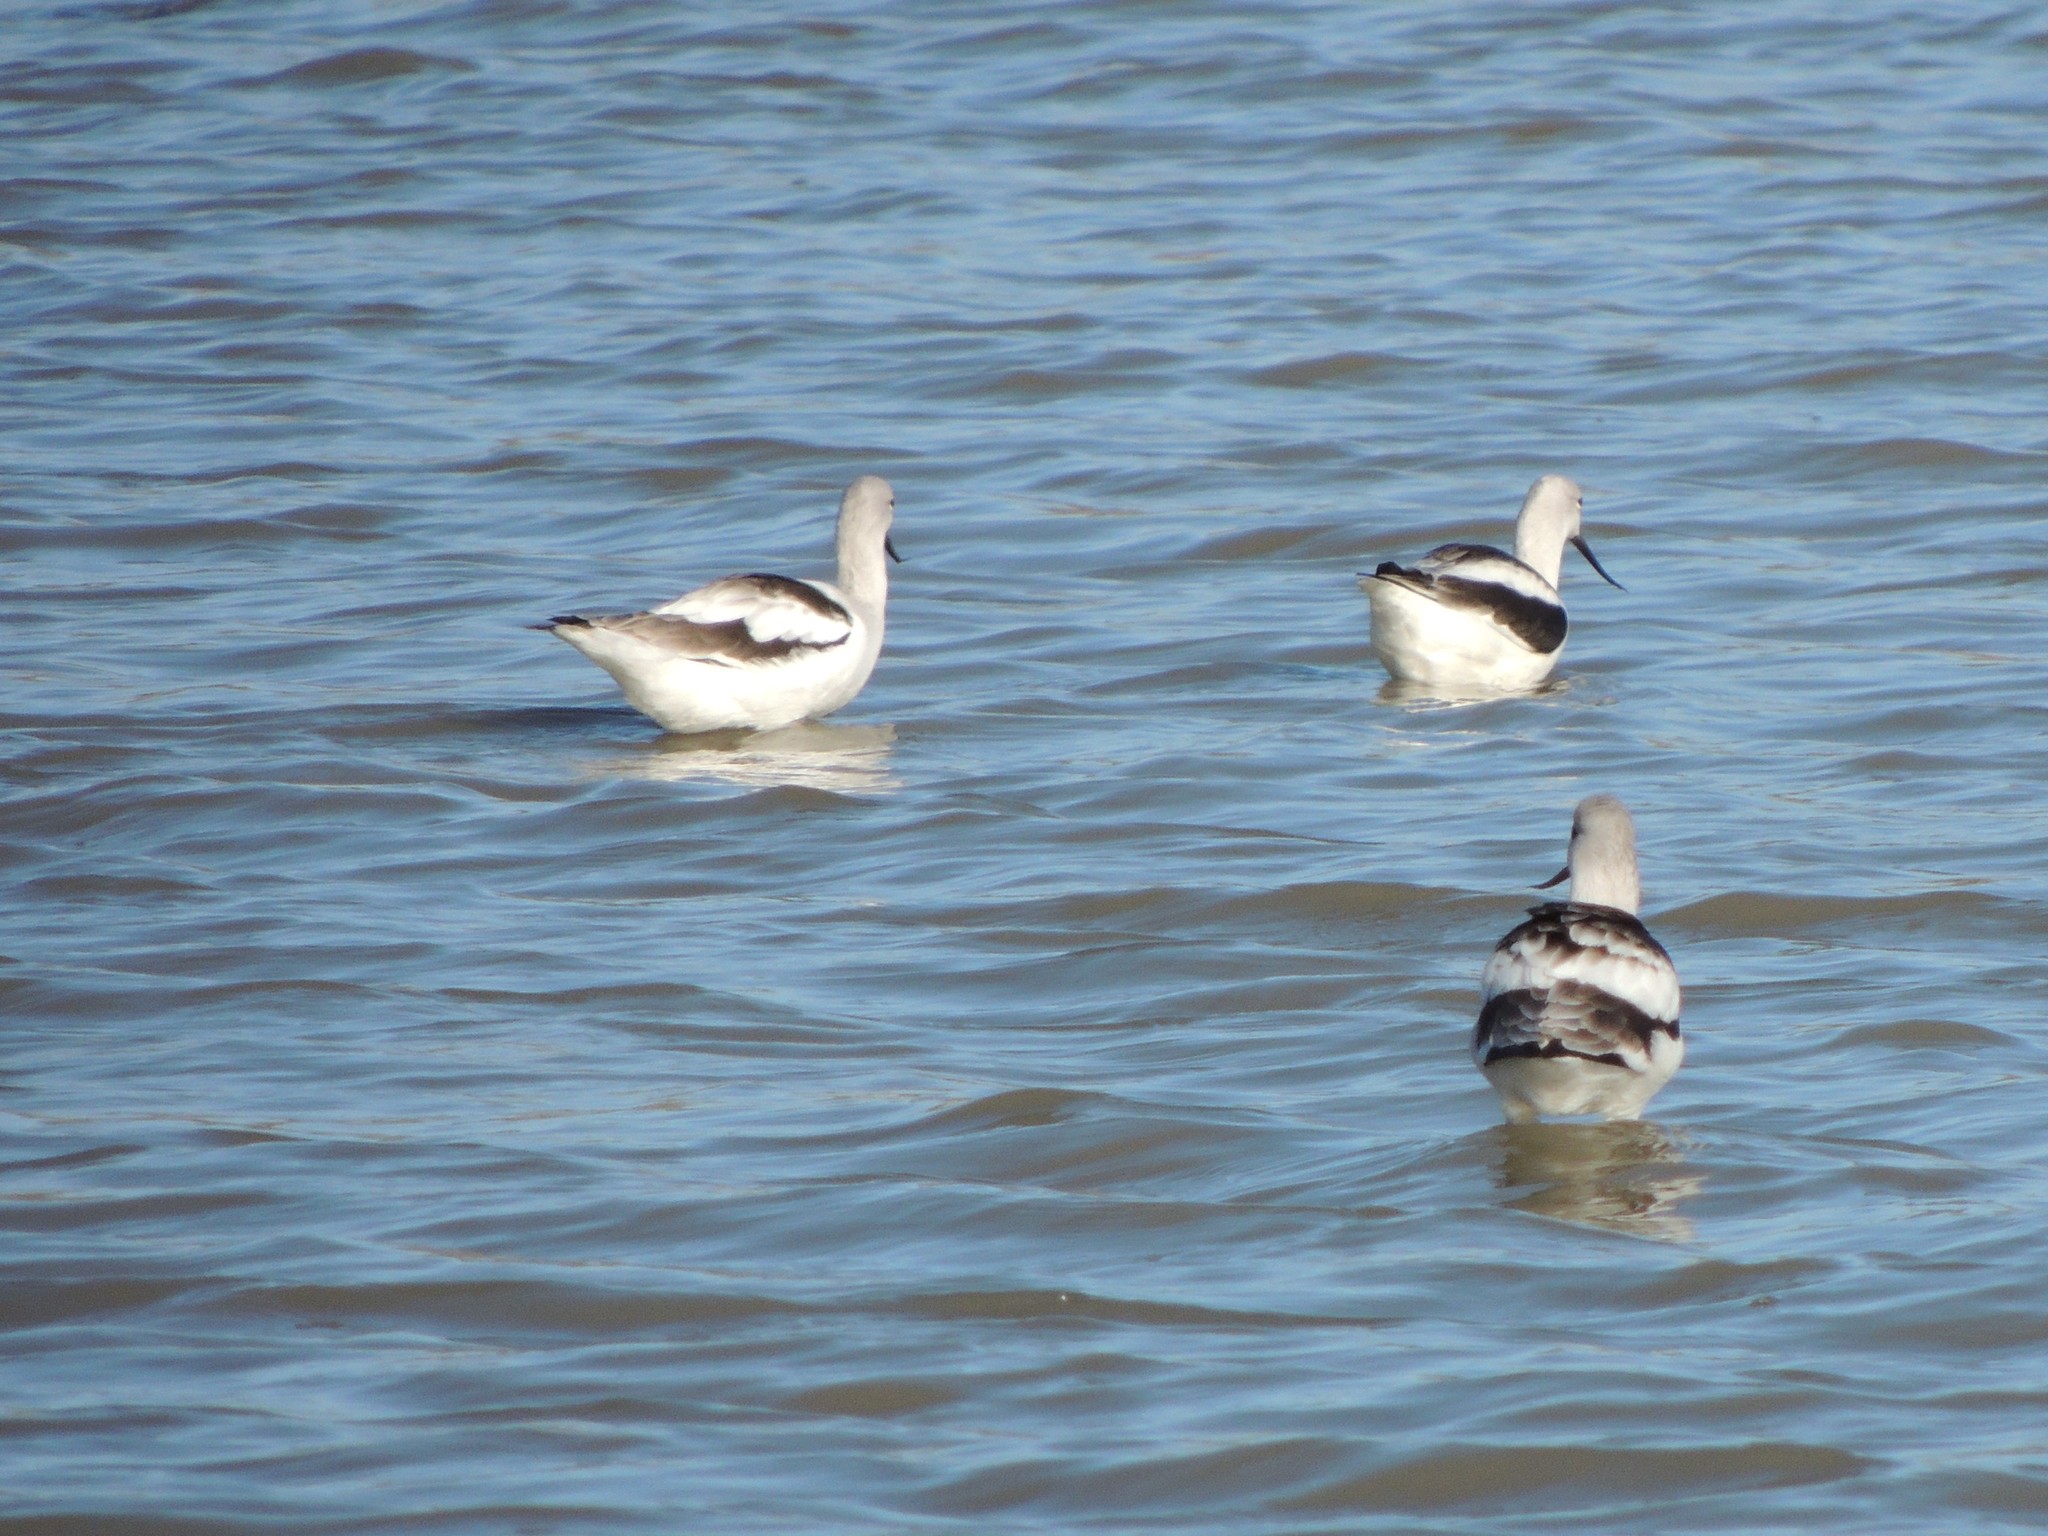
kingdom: Animalia
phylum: Chordata
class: Aves
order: Charadriiformes
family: Recurvirostridae
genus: Recurvirostra
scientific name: Recurvirostra americana
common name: American avocet
